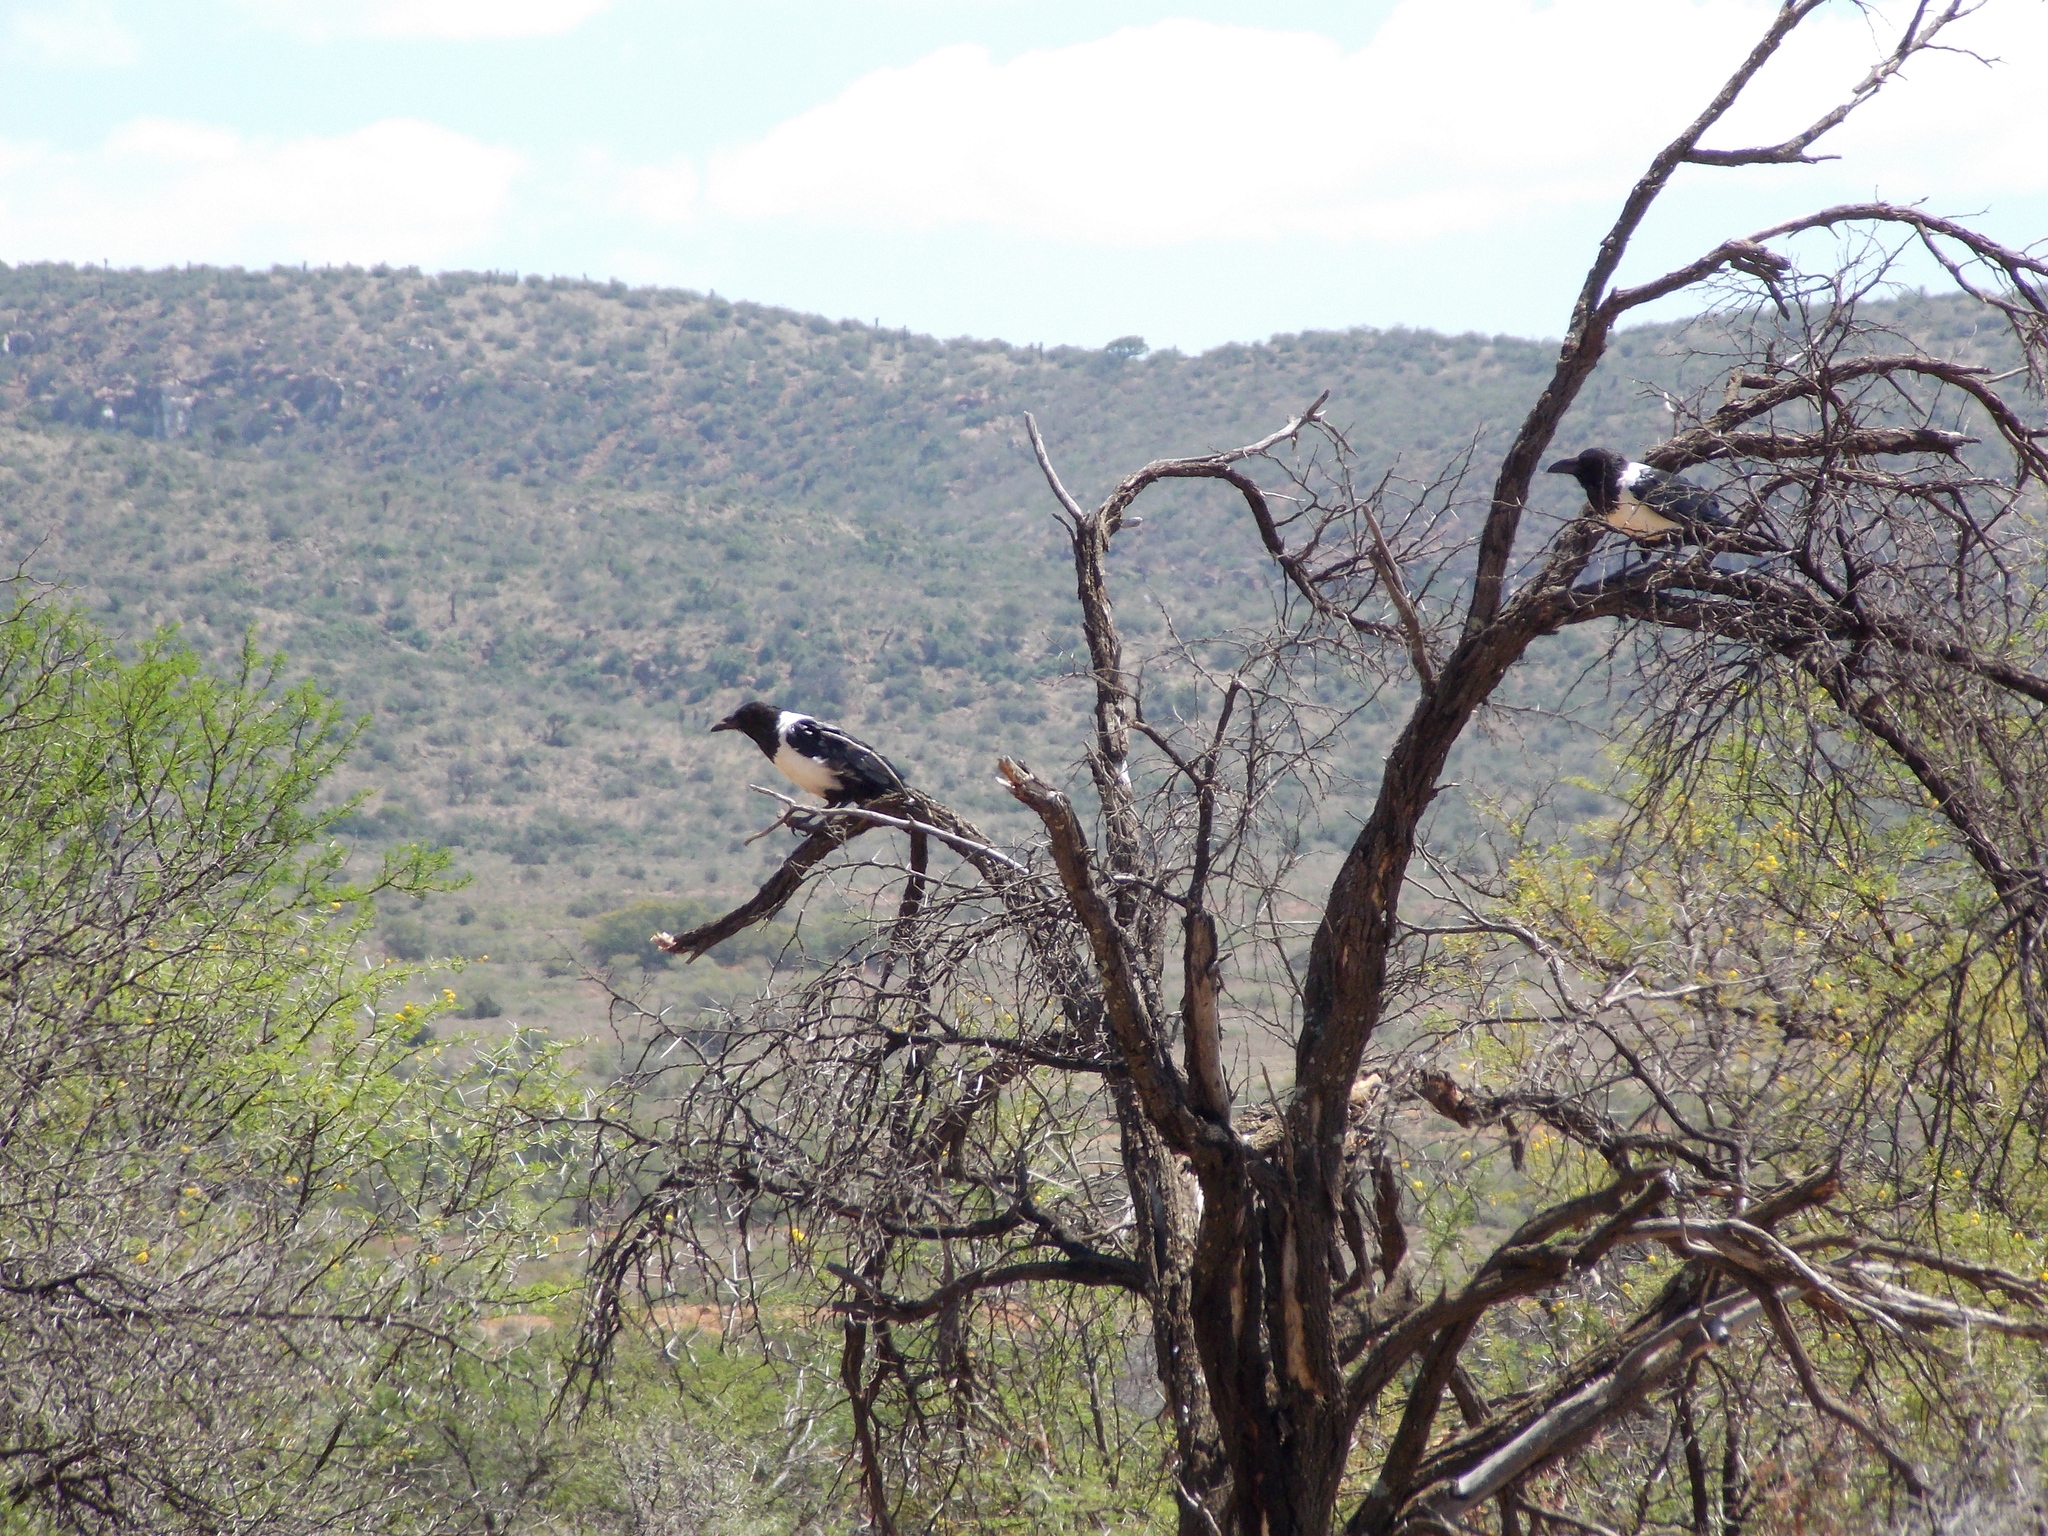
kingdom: Animalia
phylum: Chordata
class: Aves
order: Passeriformes
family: Corvidae
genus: Corvus
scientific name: Corvus albus
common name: Pied crow
